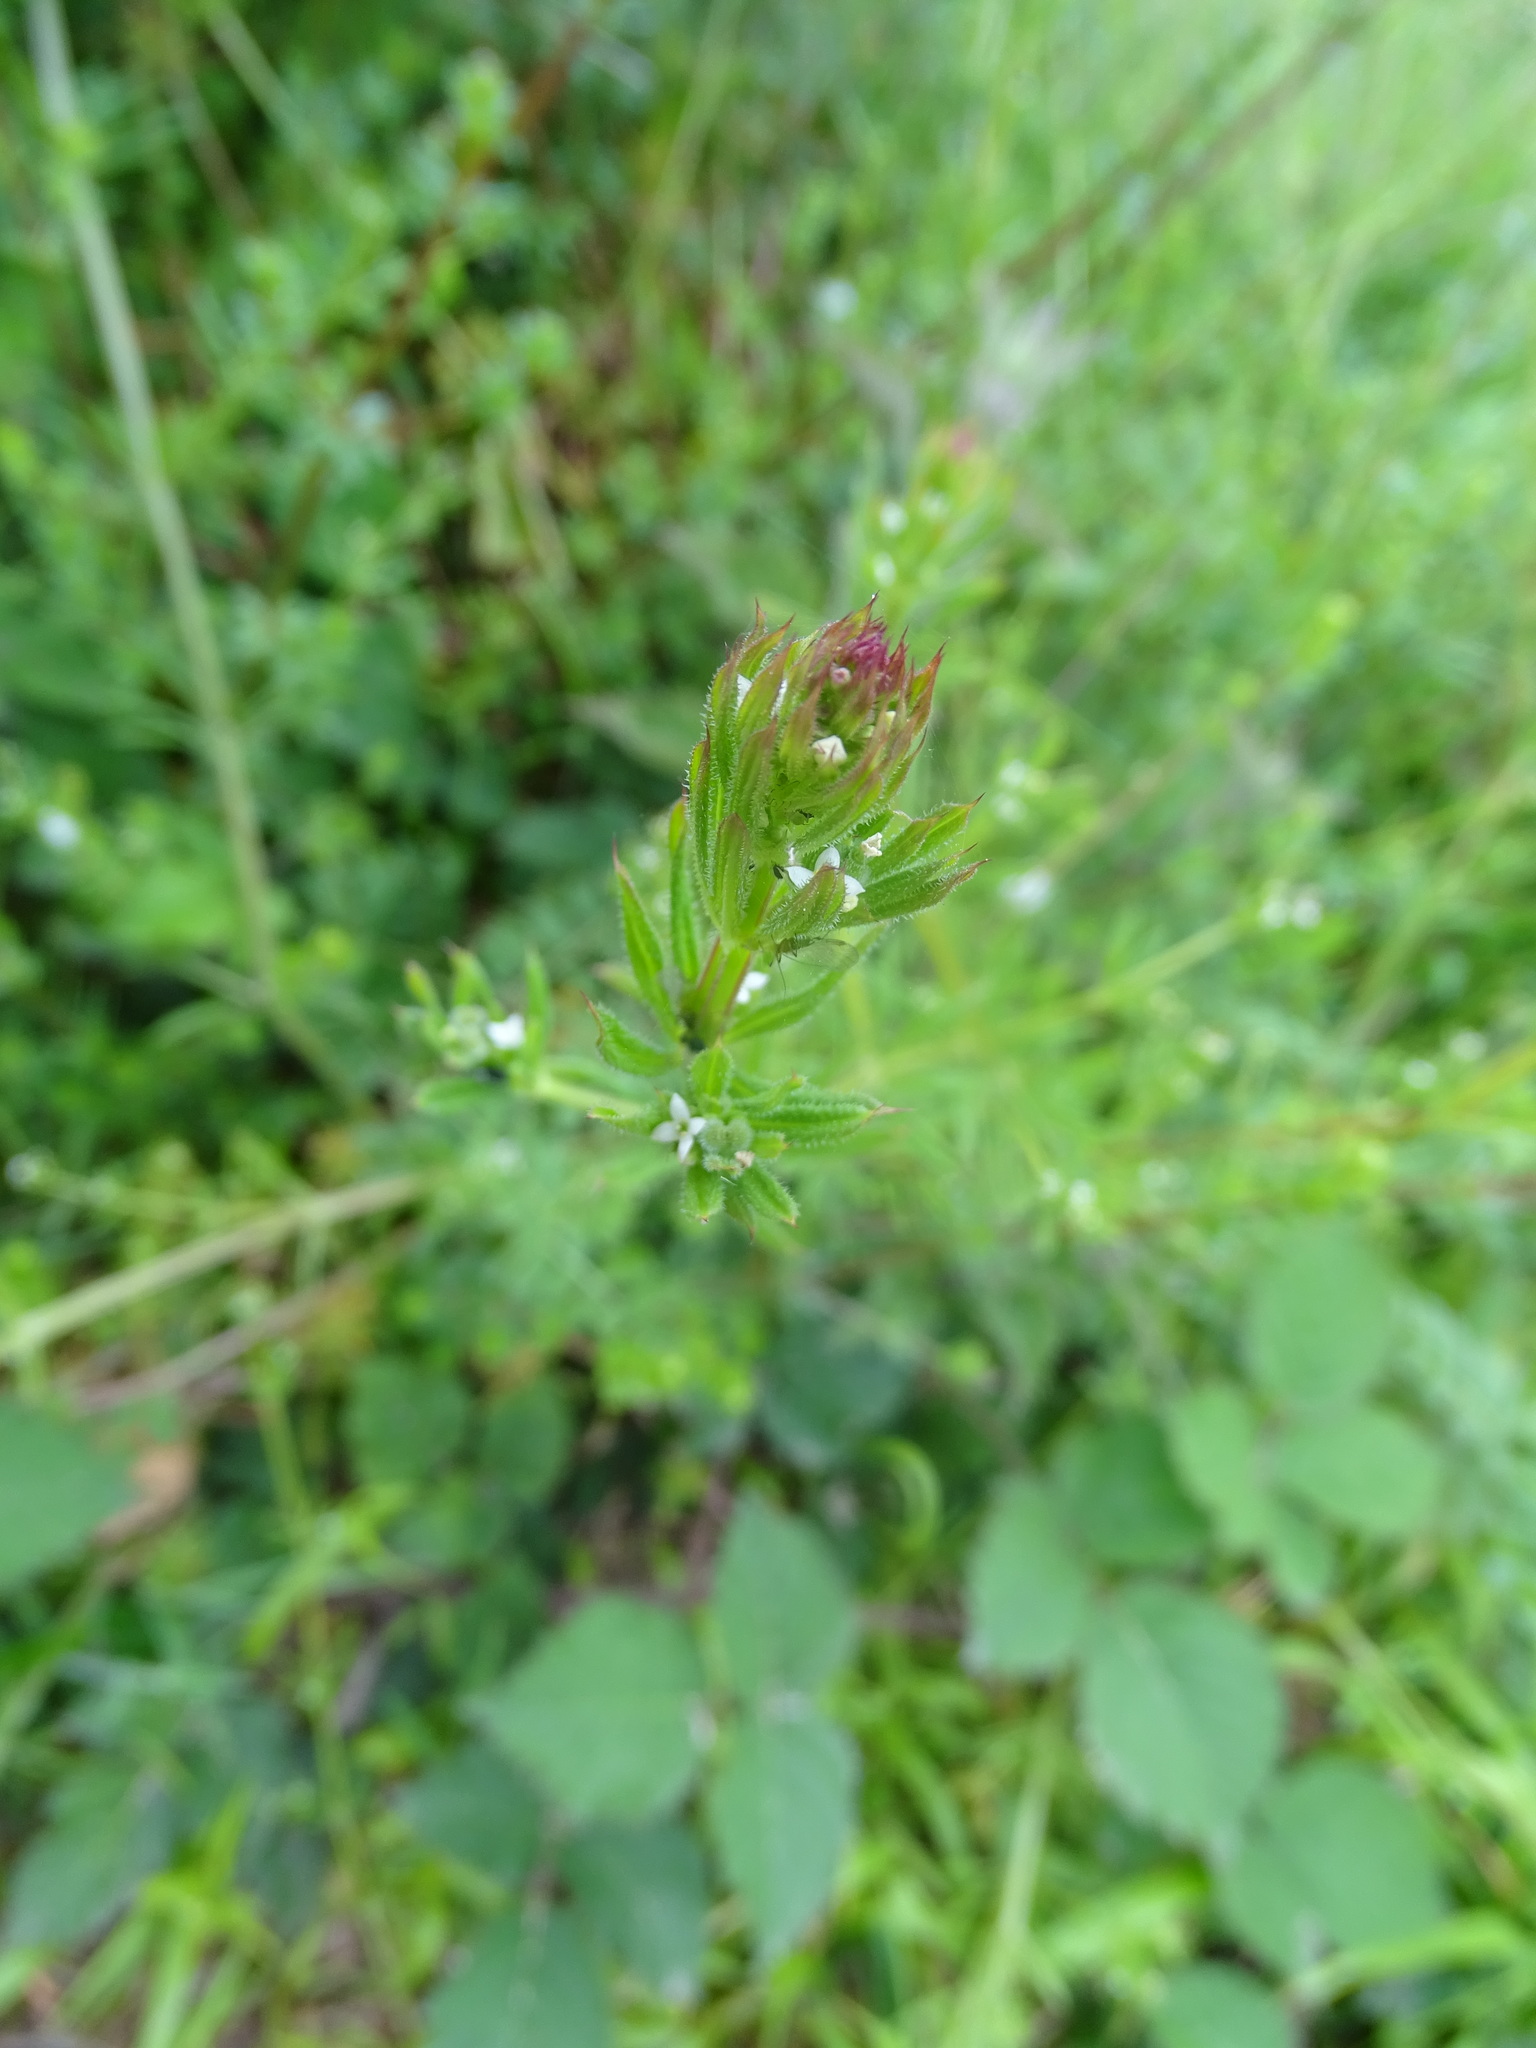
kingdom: Plantae
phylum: Tracheophyta
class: Magnoliopsida
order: Gentianales
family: Rubiaceae
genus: Galium
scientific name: Galium aparine
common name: Cleavers
